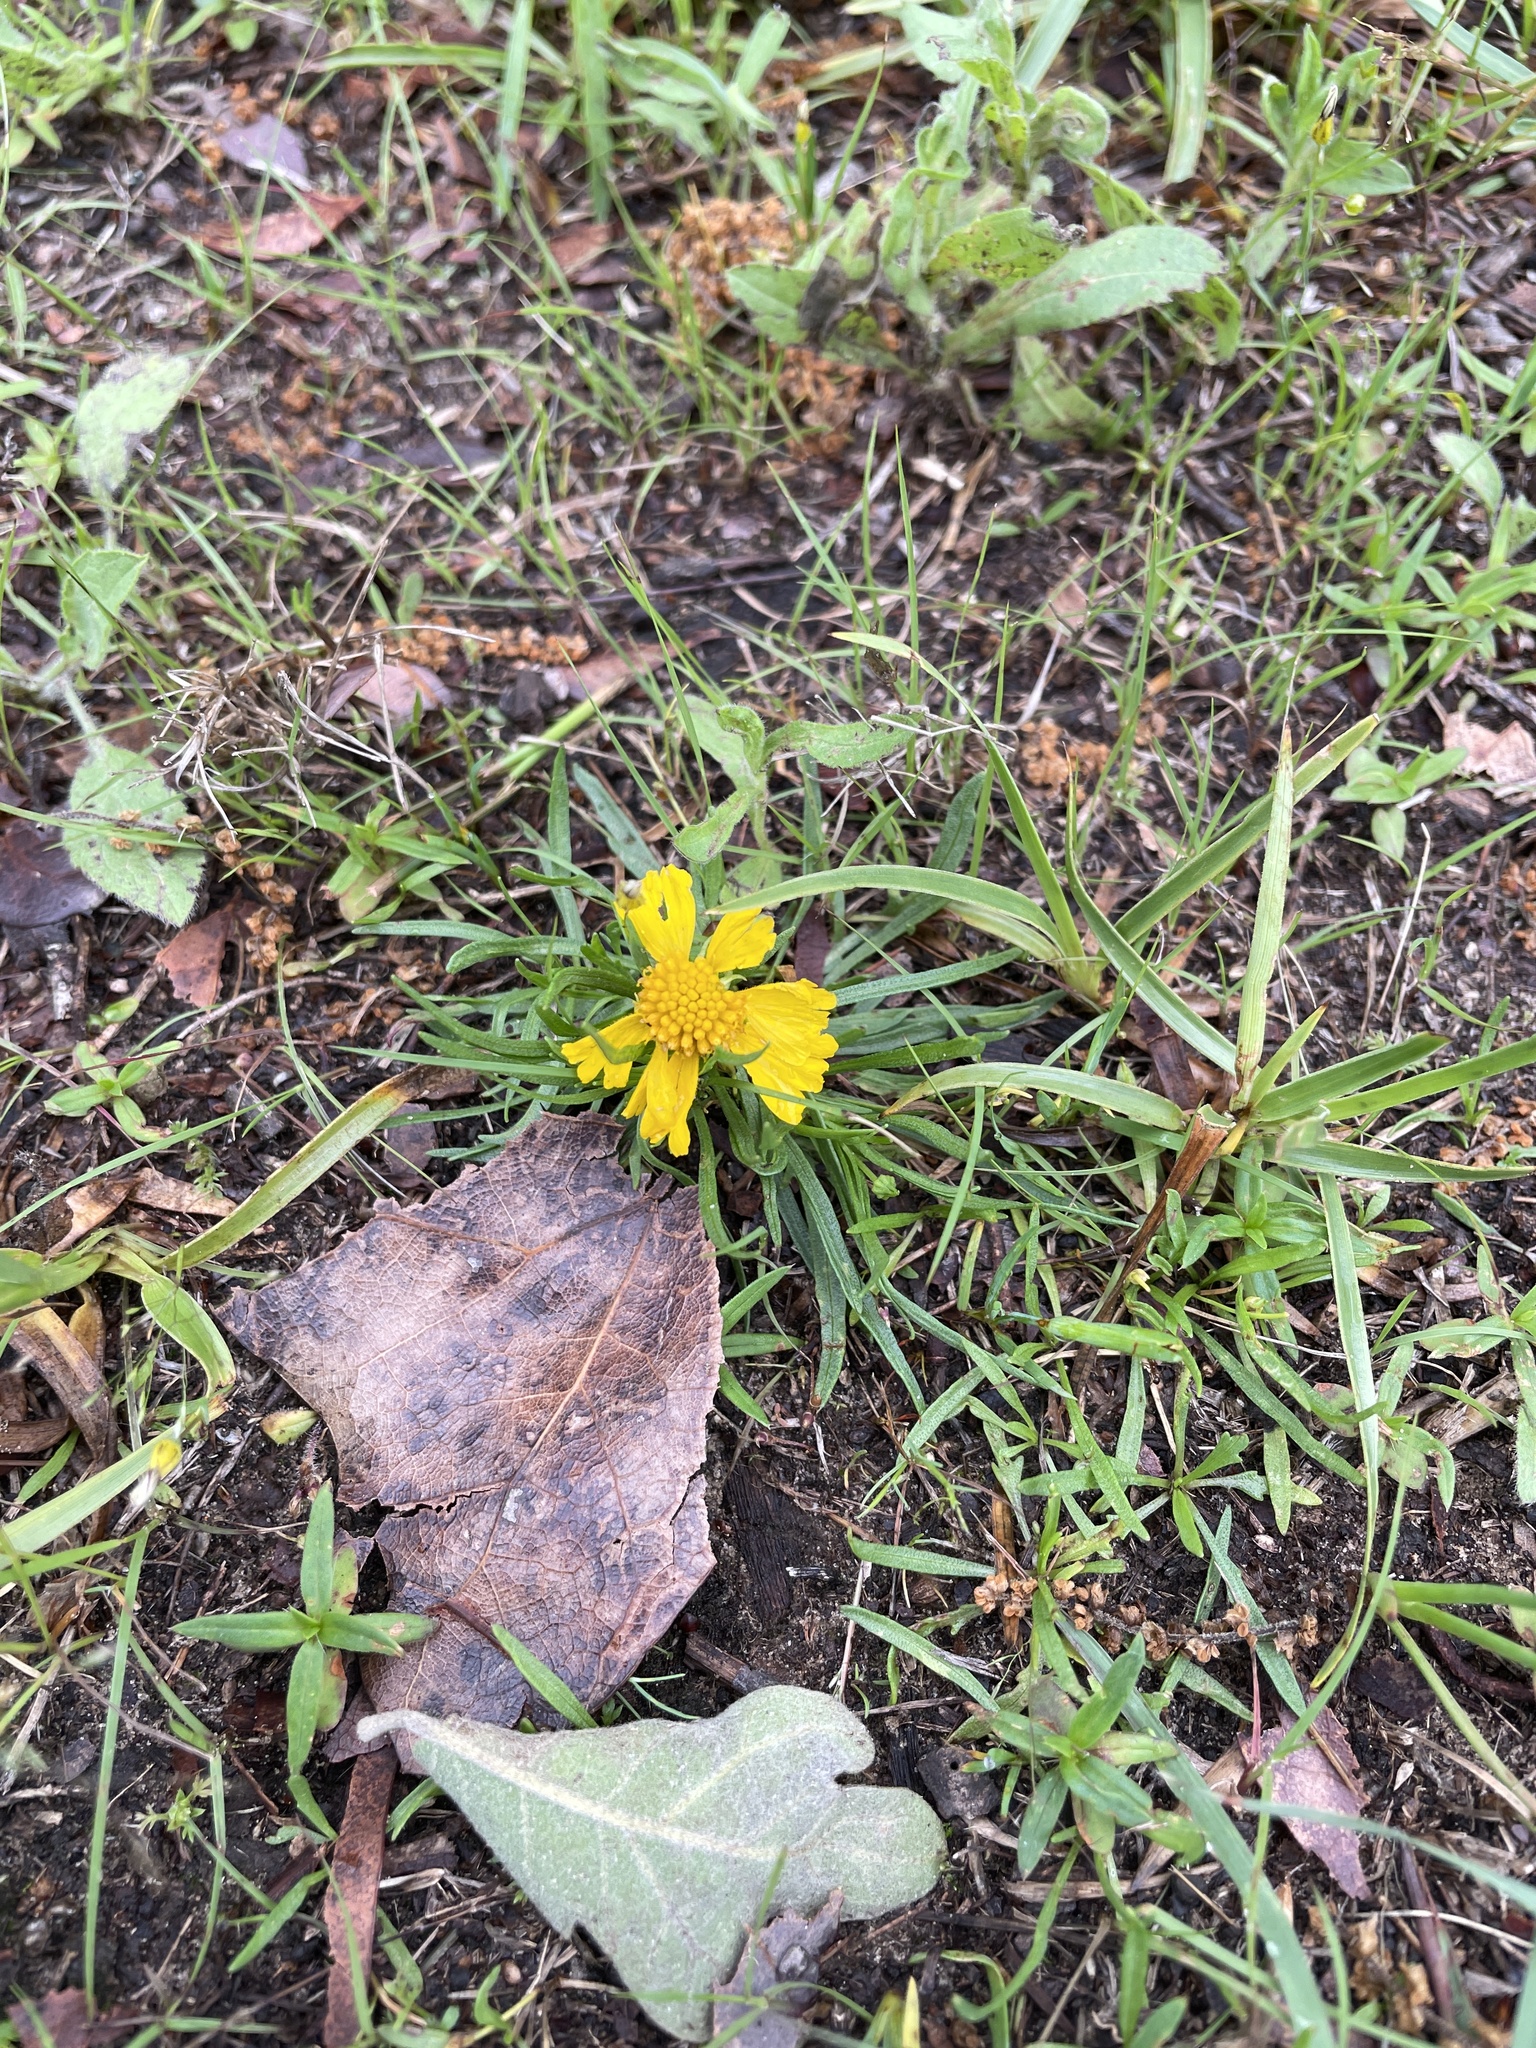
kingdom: Plantae
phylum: Tracheophyta
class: Magnoliopsida
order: Asterales
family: Asteraceae
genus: Helenium
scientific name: Helenium amarum
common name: Bitter sneezeweed
